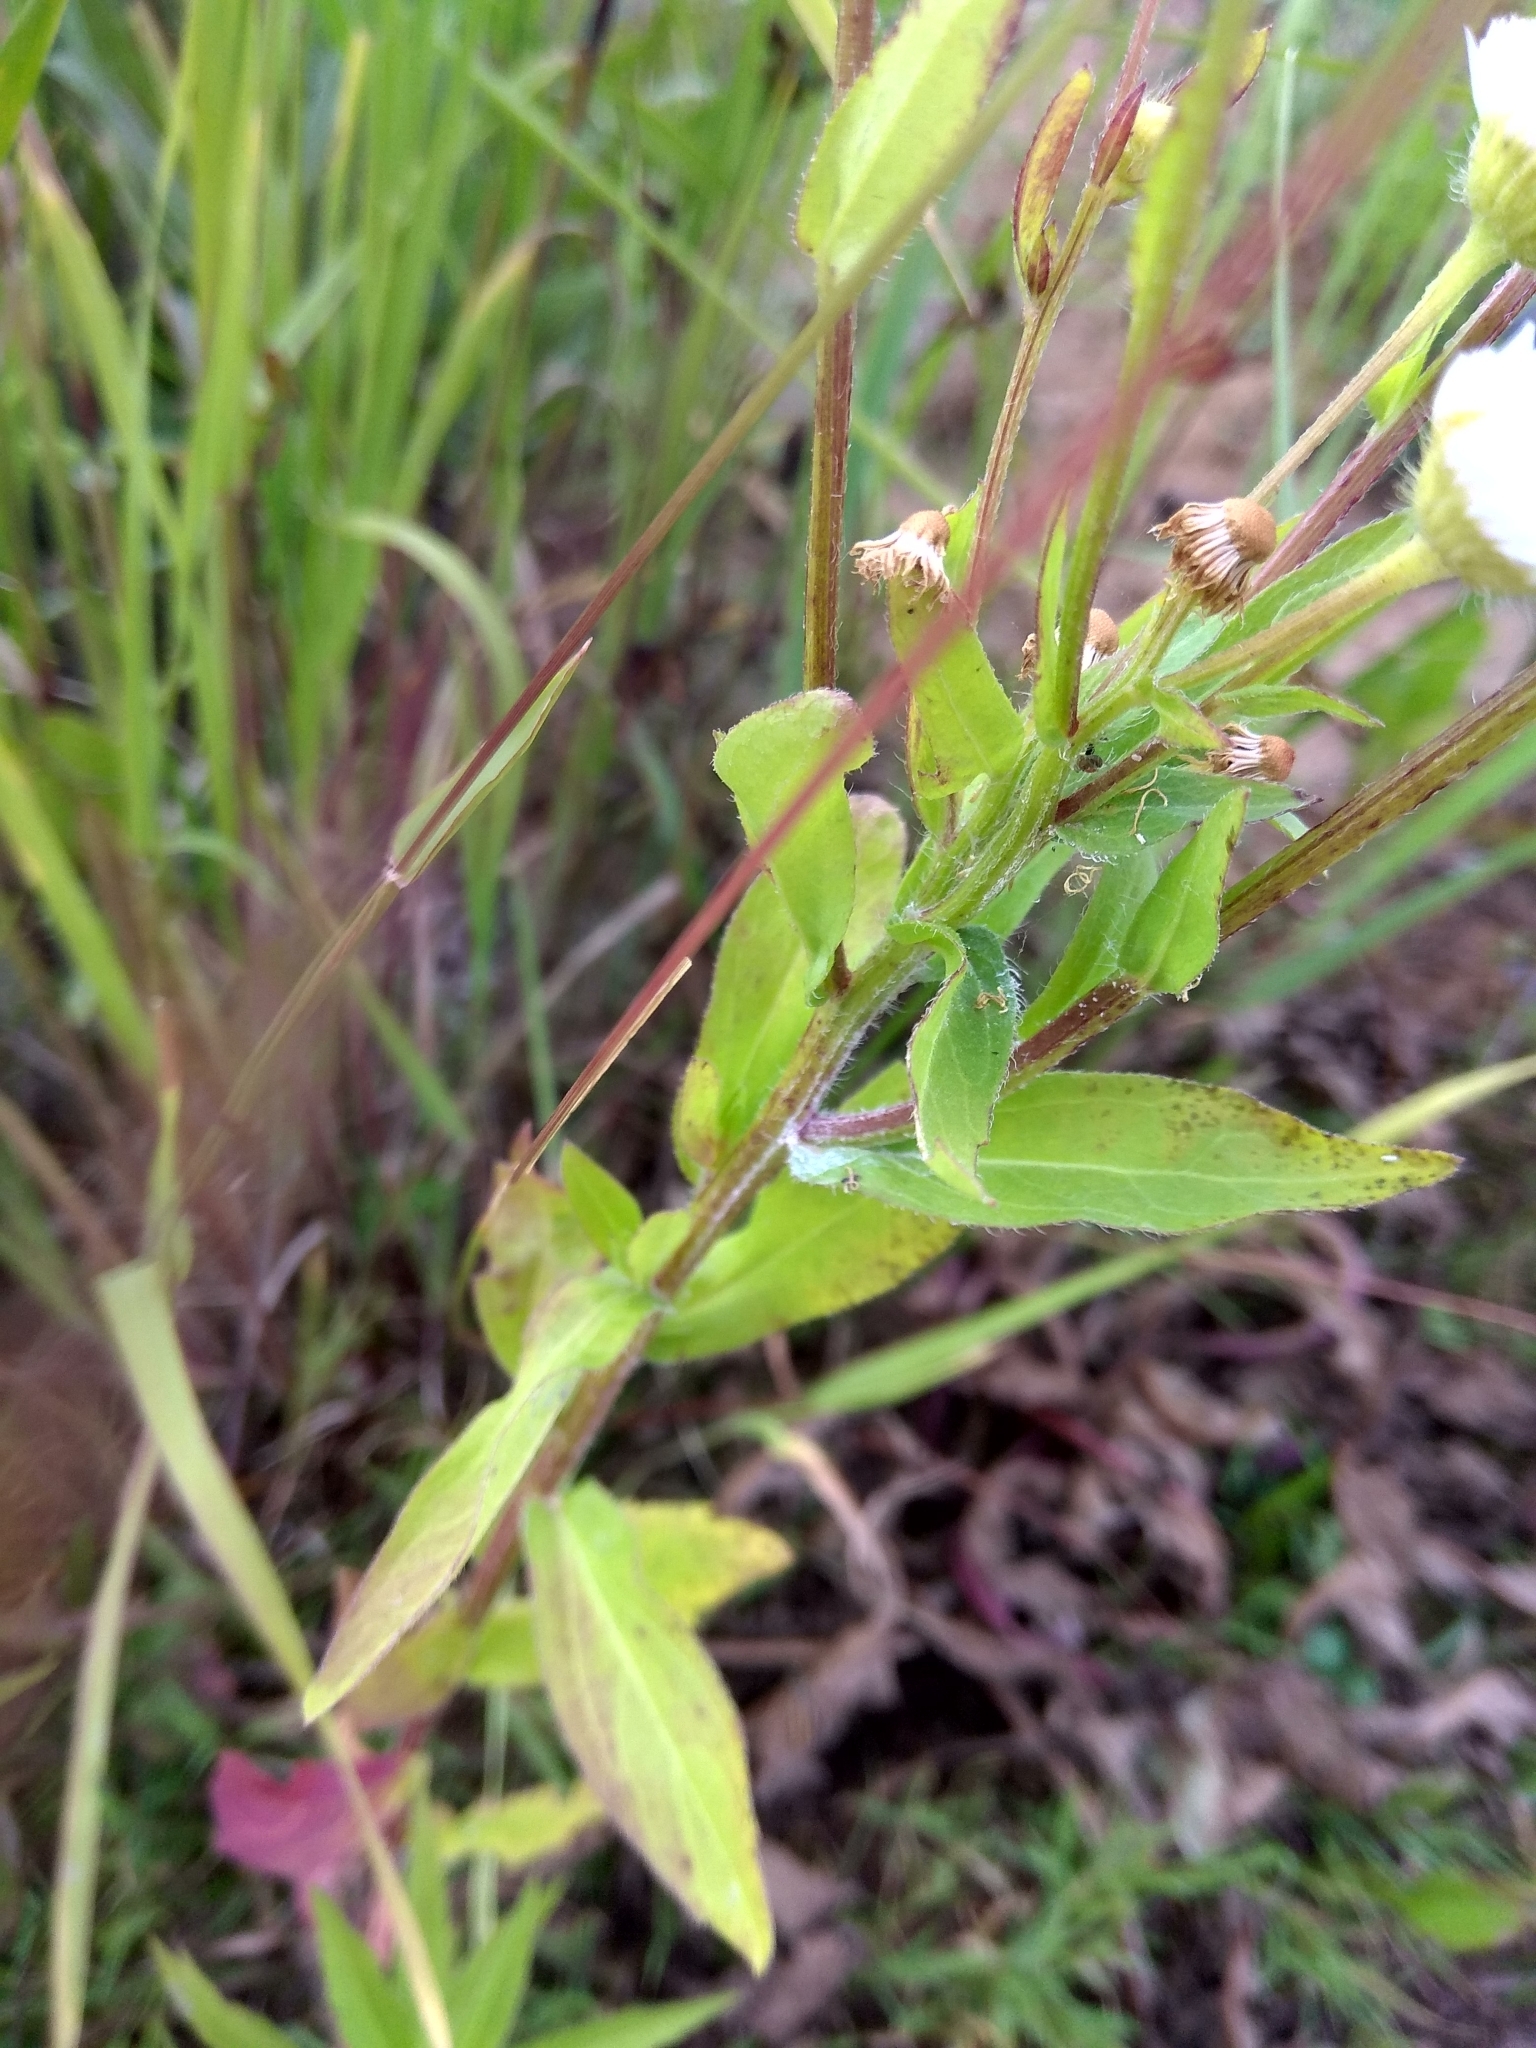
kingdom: Plantae
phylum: Tracheophyta
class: Magnoliopsida
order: Asterales
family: Asteraceae
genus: Erigeron
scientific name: Erigeron annuus
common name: Tall fleabane
